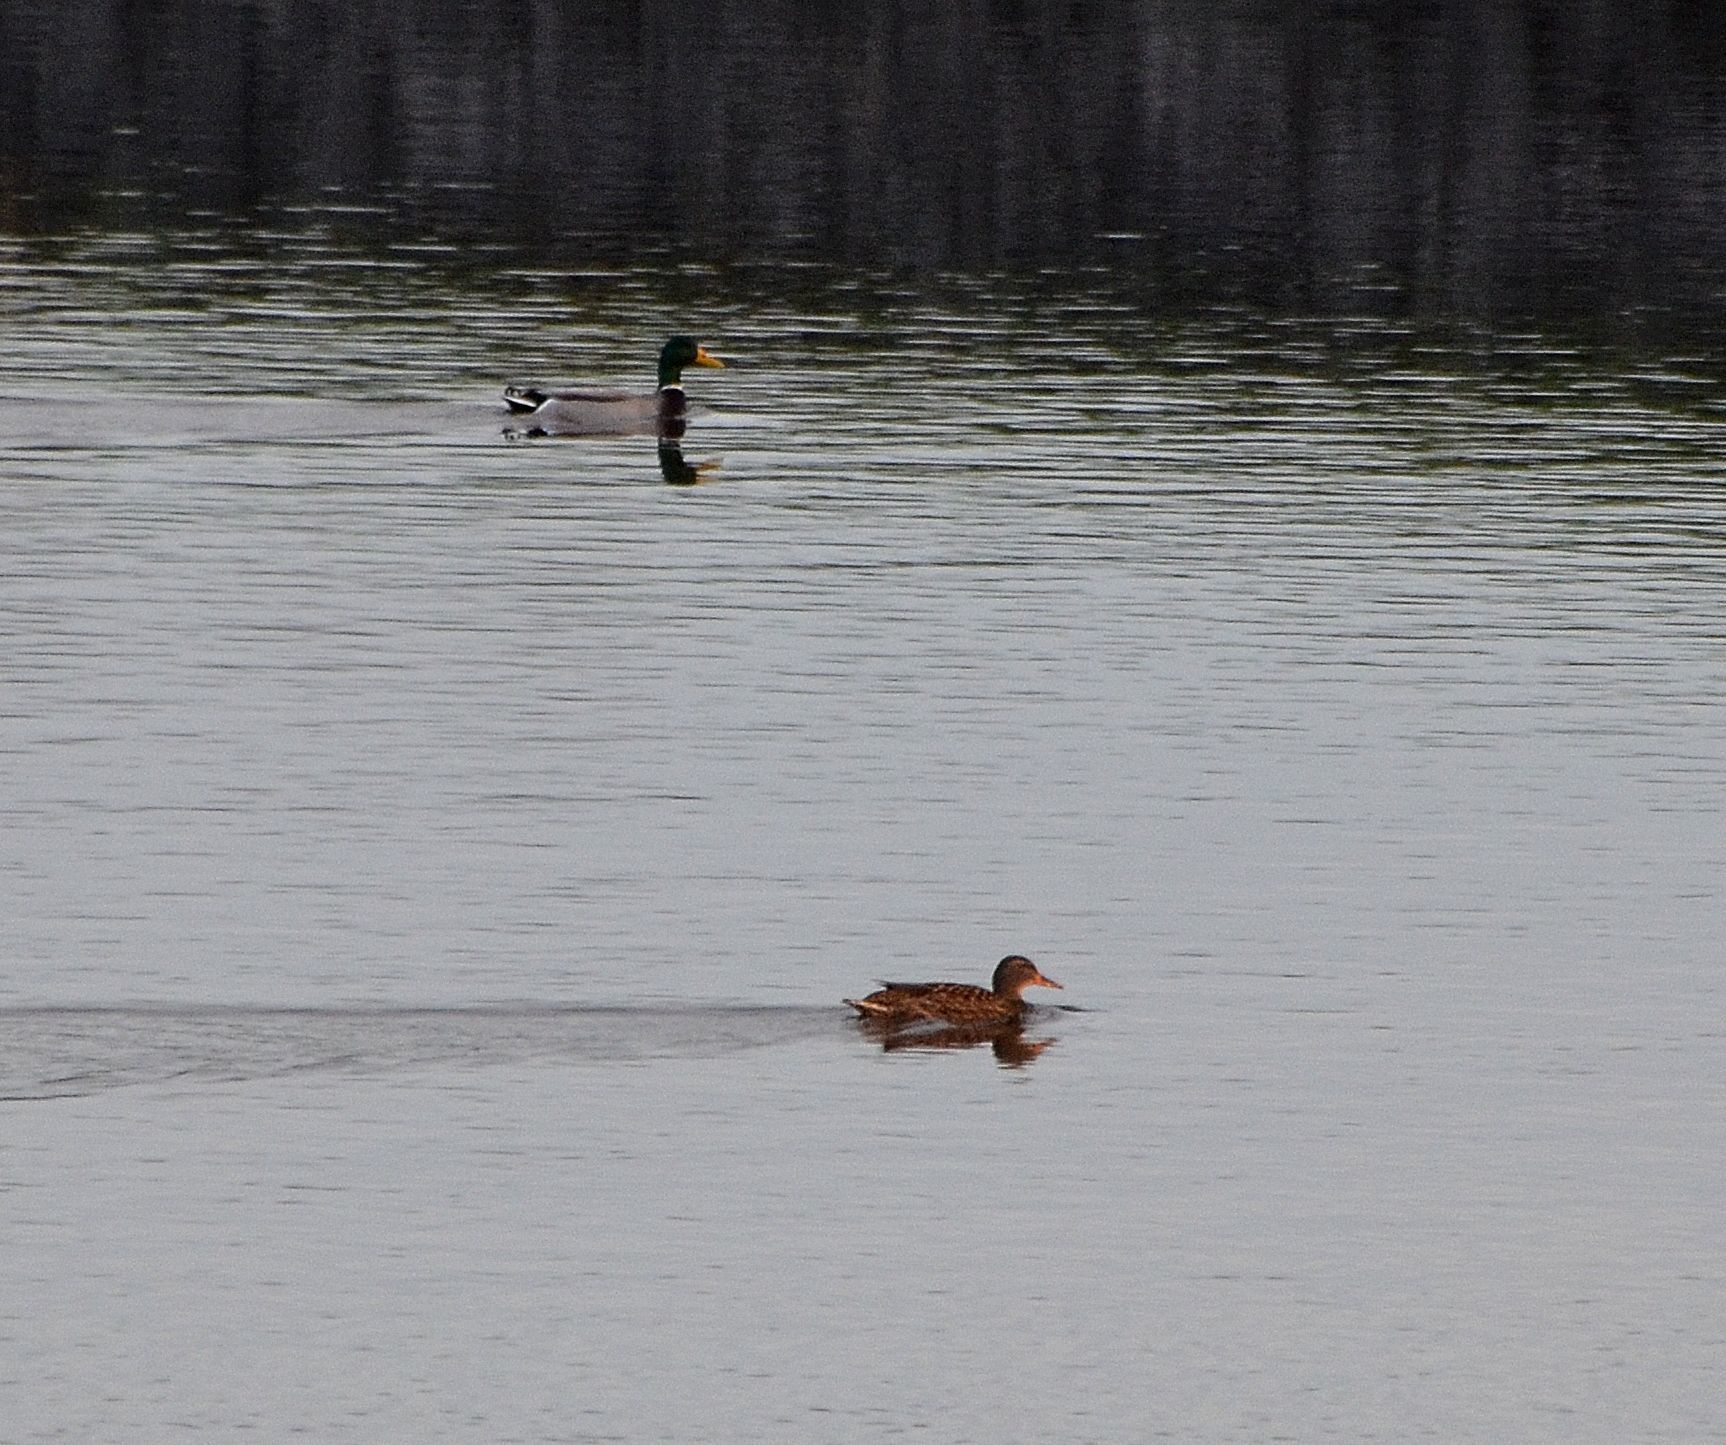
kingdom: Animalia
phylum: Chordata
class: Aves
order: Anseriformes
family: Anatidae
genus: Anas
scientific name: Anas platyrhynchos
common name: Mallard
